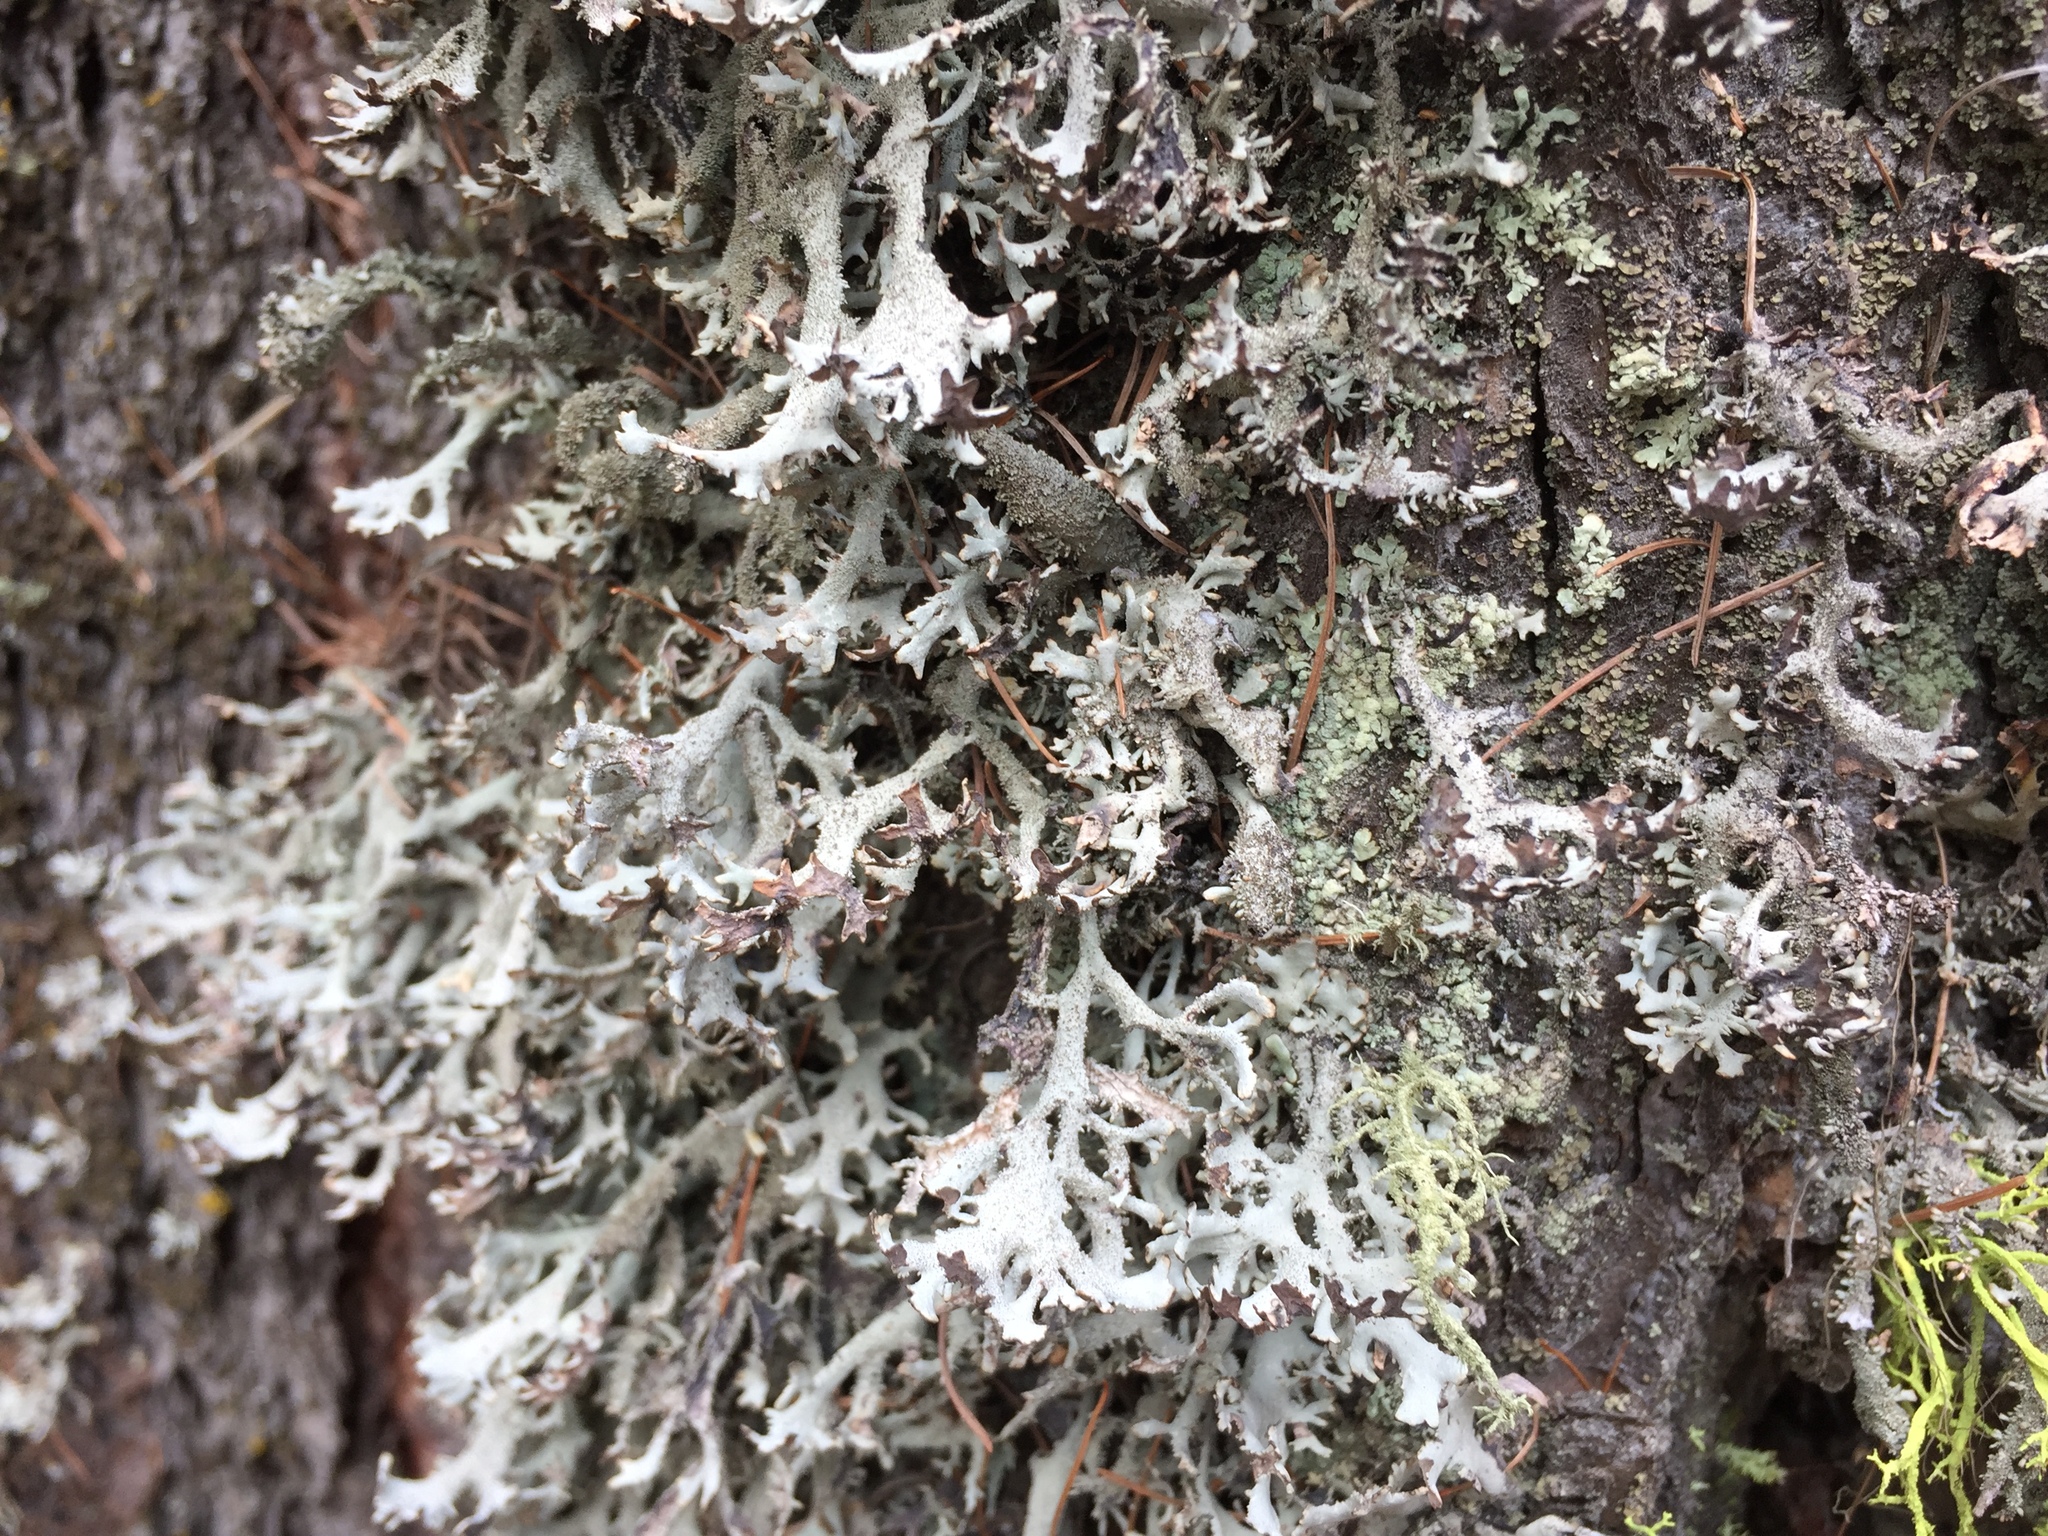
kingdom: Fungi
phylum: Ascomycota
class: Lecanoromycetes
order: Lecanorales
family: Parmeliaceae
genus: Pseudevernia
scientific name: Pseudevernia furfuracea
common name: Tree moss
